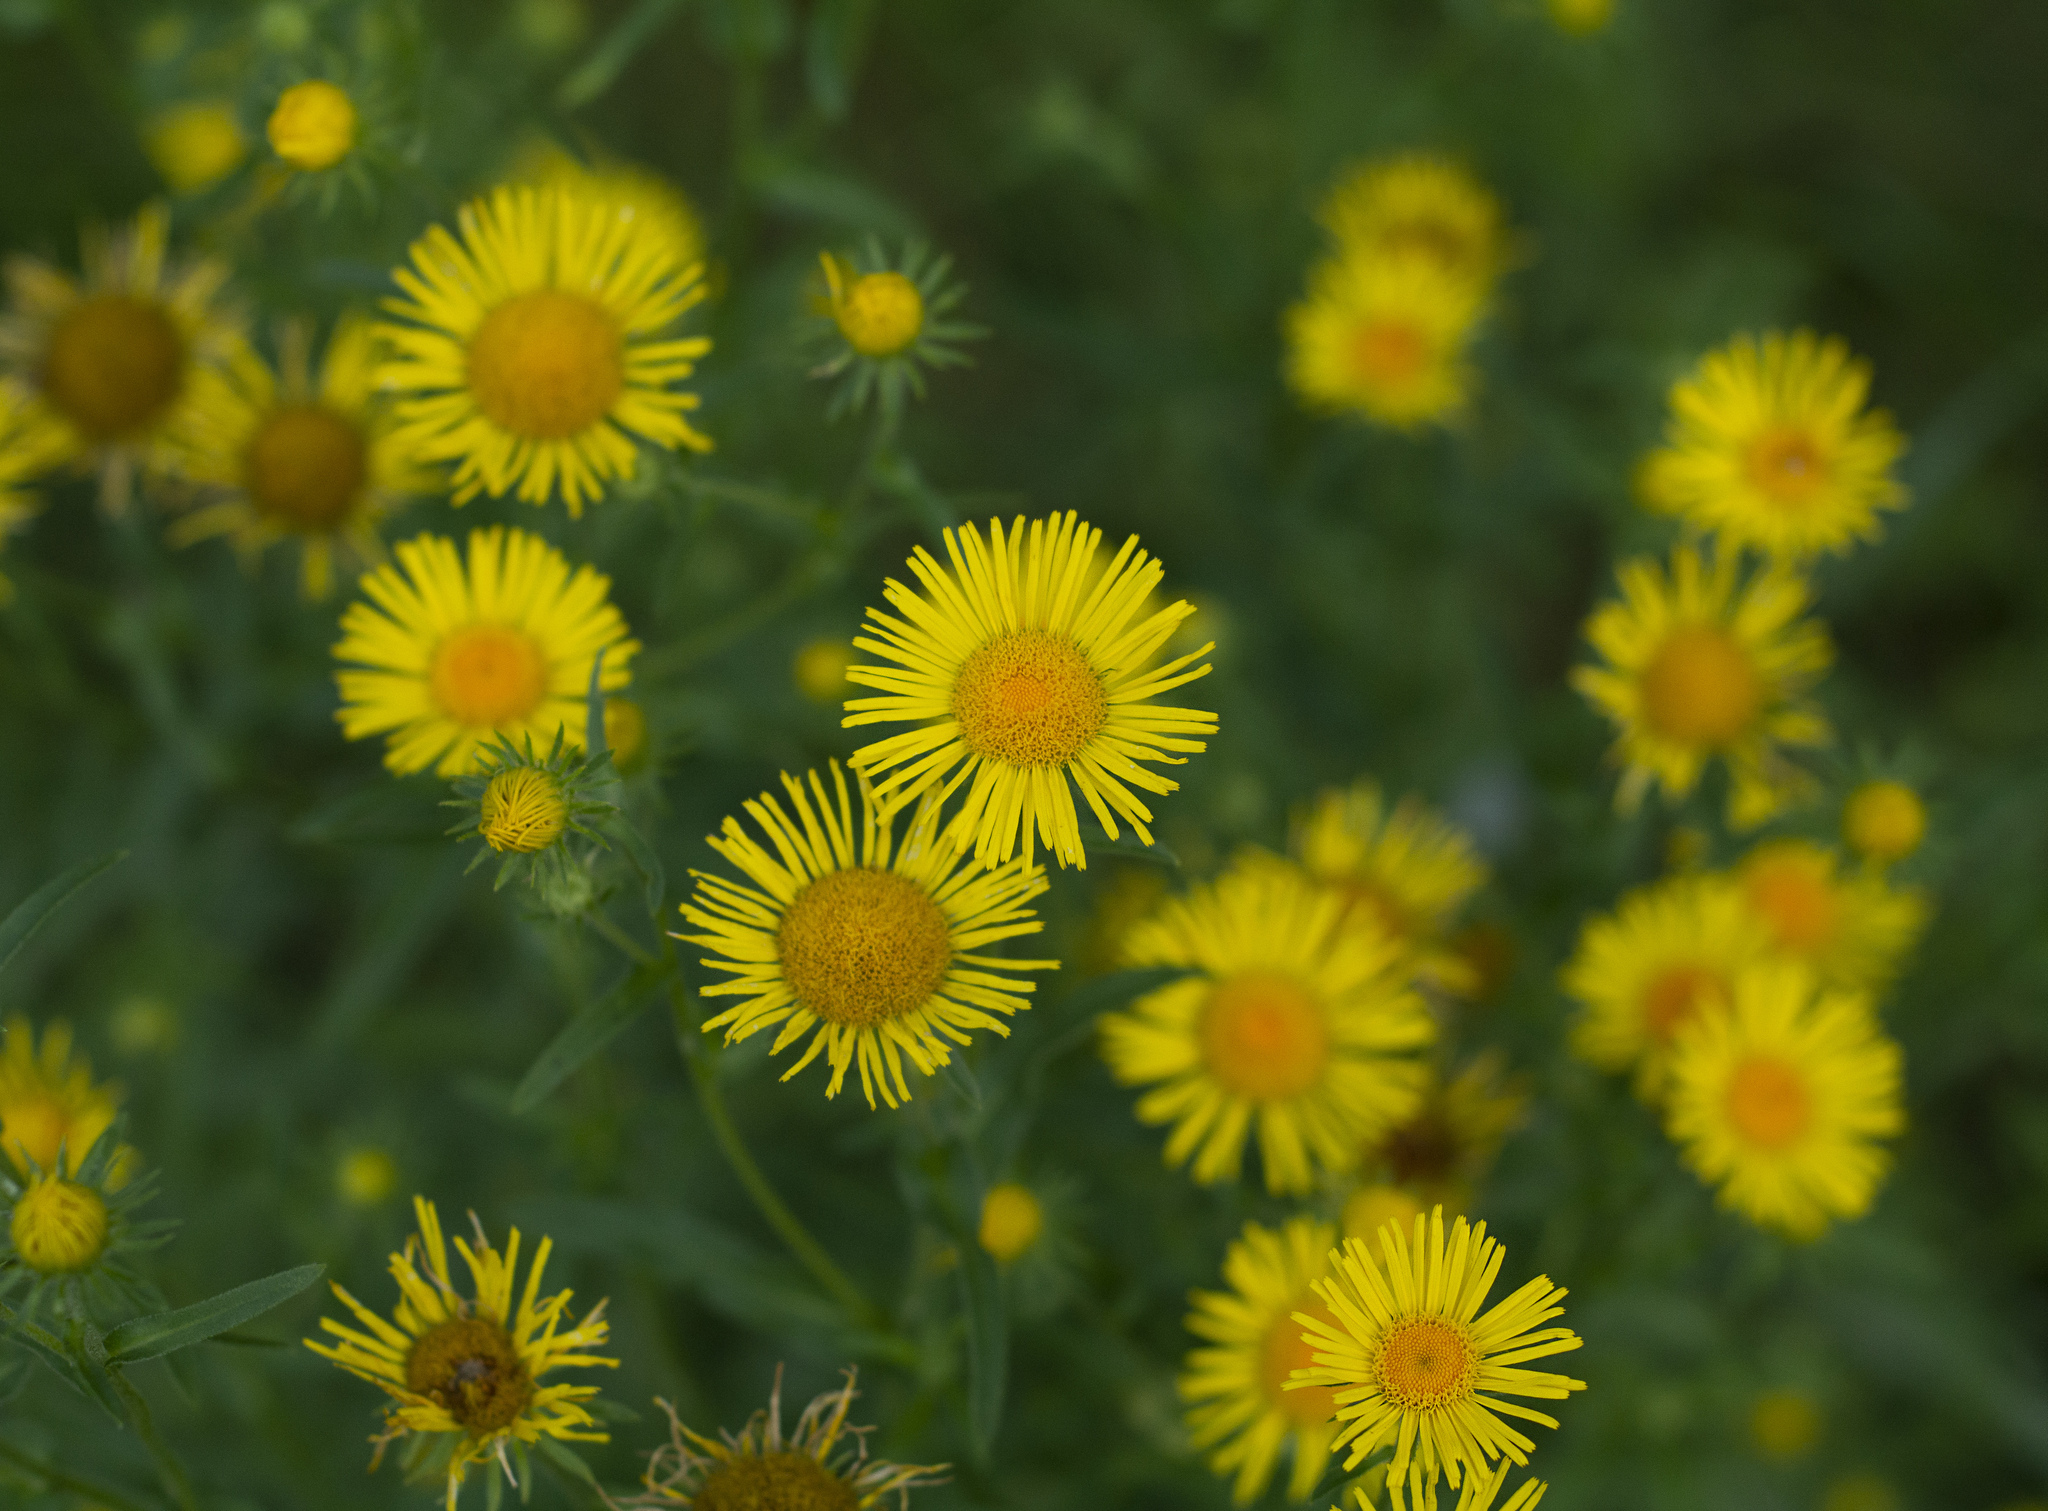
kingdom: Plantae
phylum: Tracheophyta
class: Magnoliopsida
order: Asterales
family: Asteraceae
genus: Pentanema
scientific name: Pentanema britannicum
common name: British elecampane
